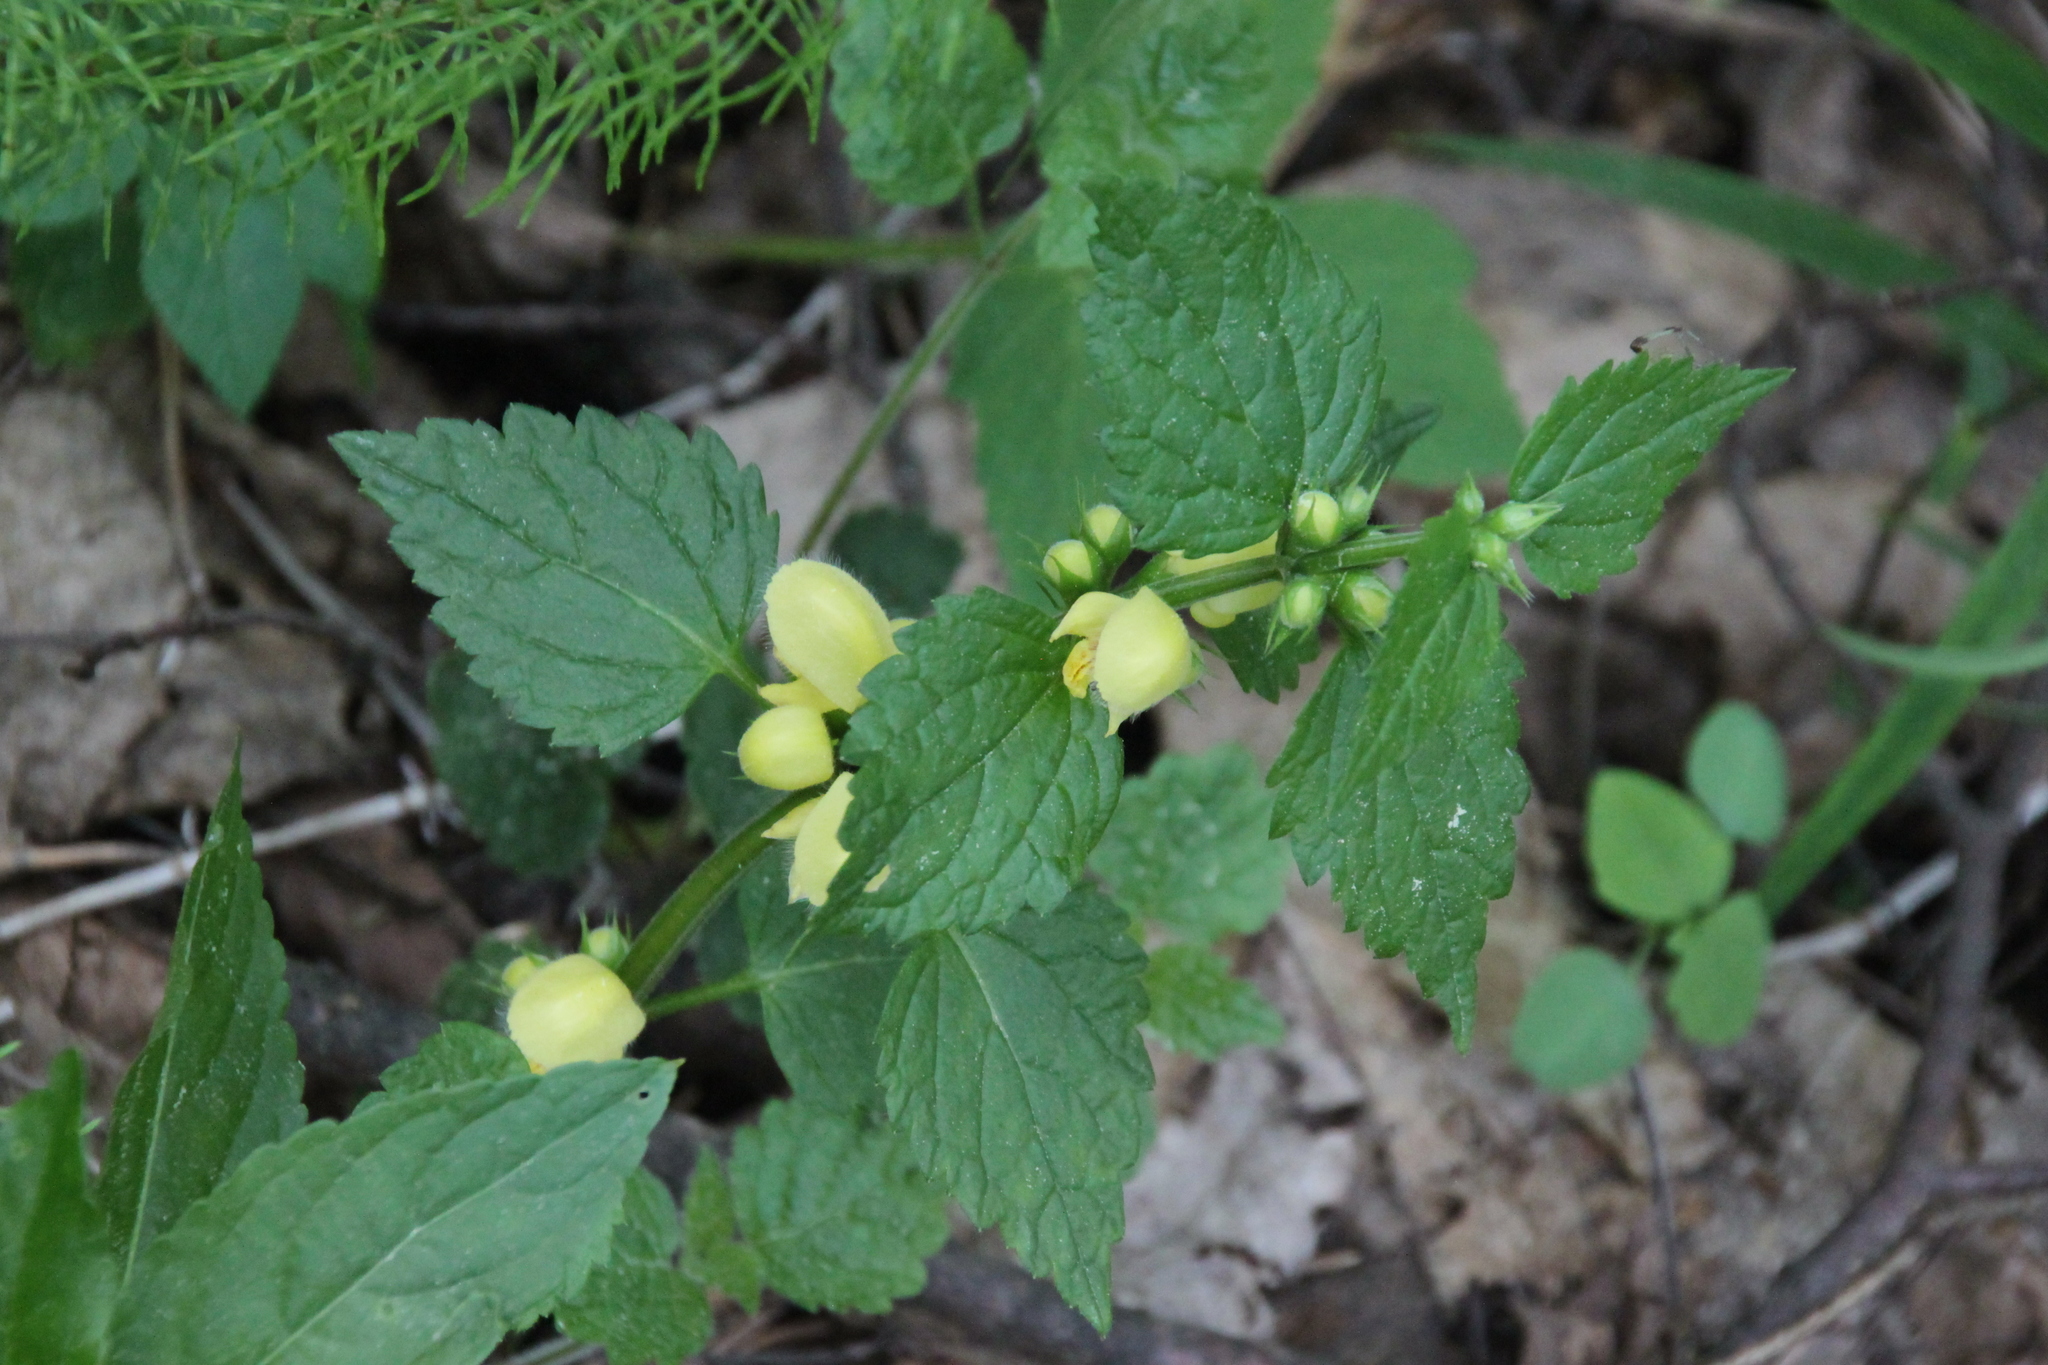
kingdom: Plantae
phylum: Tracheophyta
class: Magnoliopsida
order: Lamiales
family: Lamiaceae
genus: Lamium
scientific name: Lamium galeobdolon
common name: Yellow archangel
